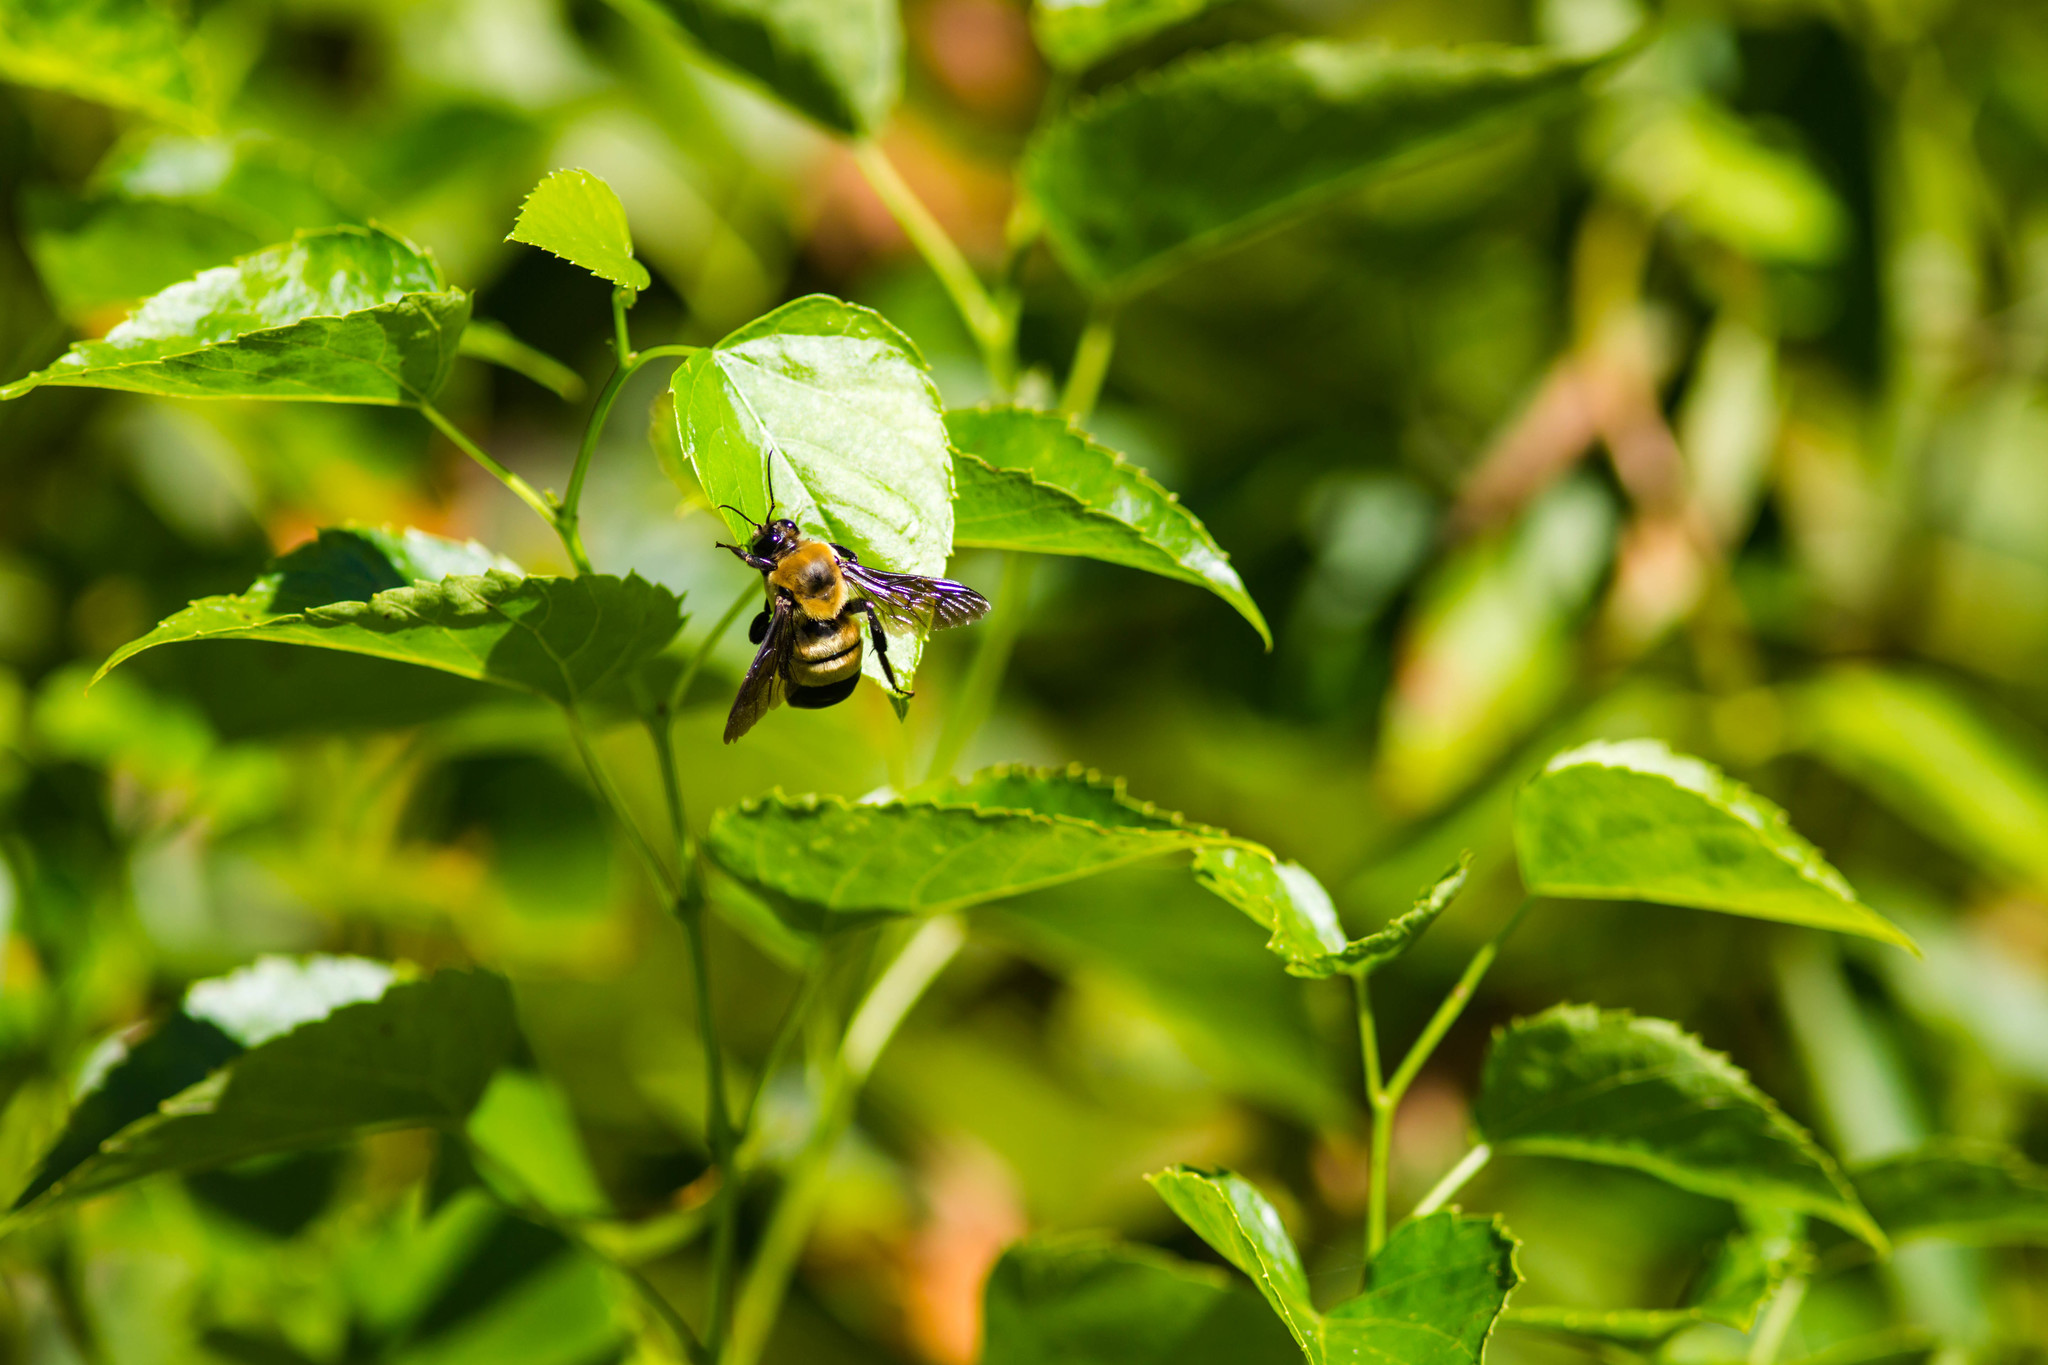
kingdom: Animalia
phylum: Arthropoda
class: Insecta
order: Hymenoptera
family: Apidae
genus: Bombus
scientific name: Bombus fraternus
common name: Southern plains bumble bee
